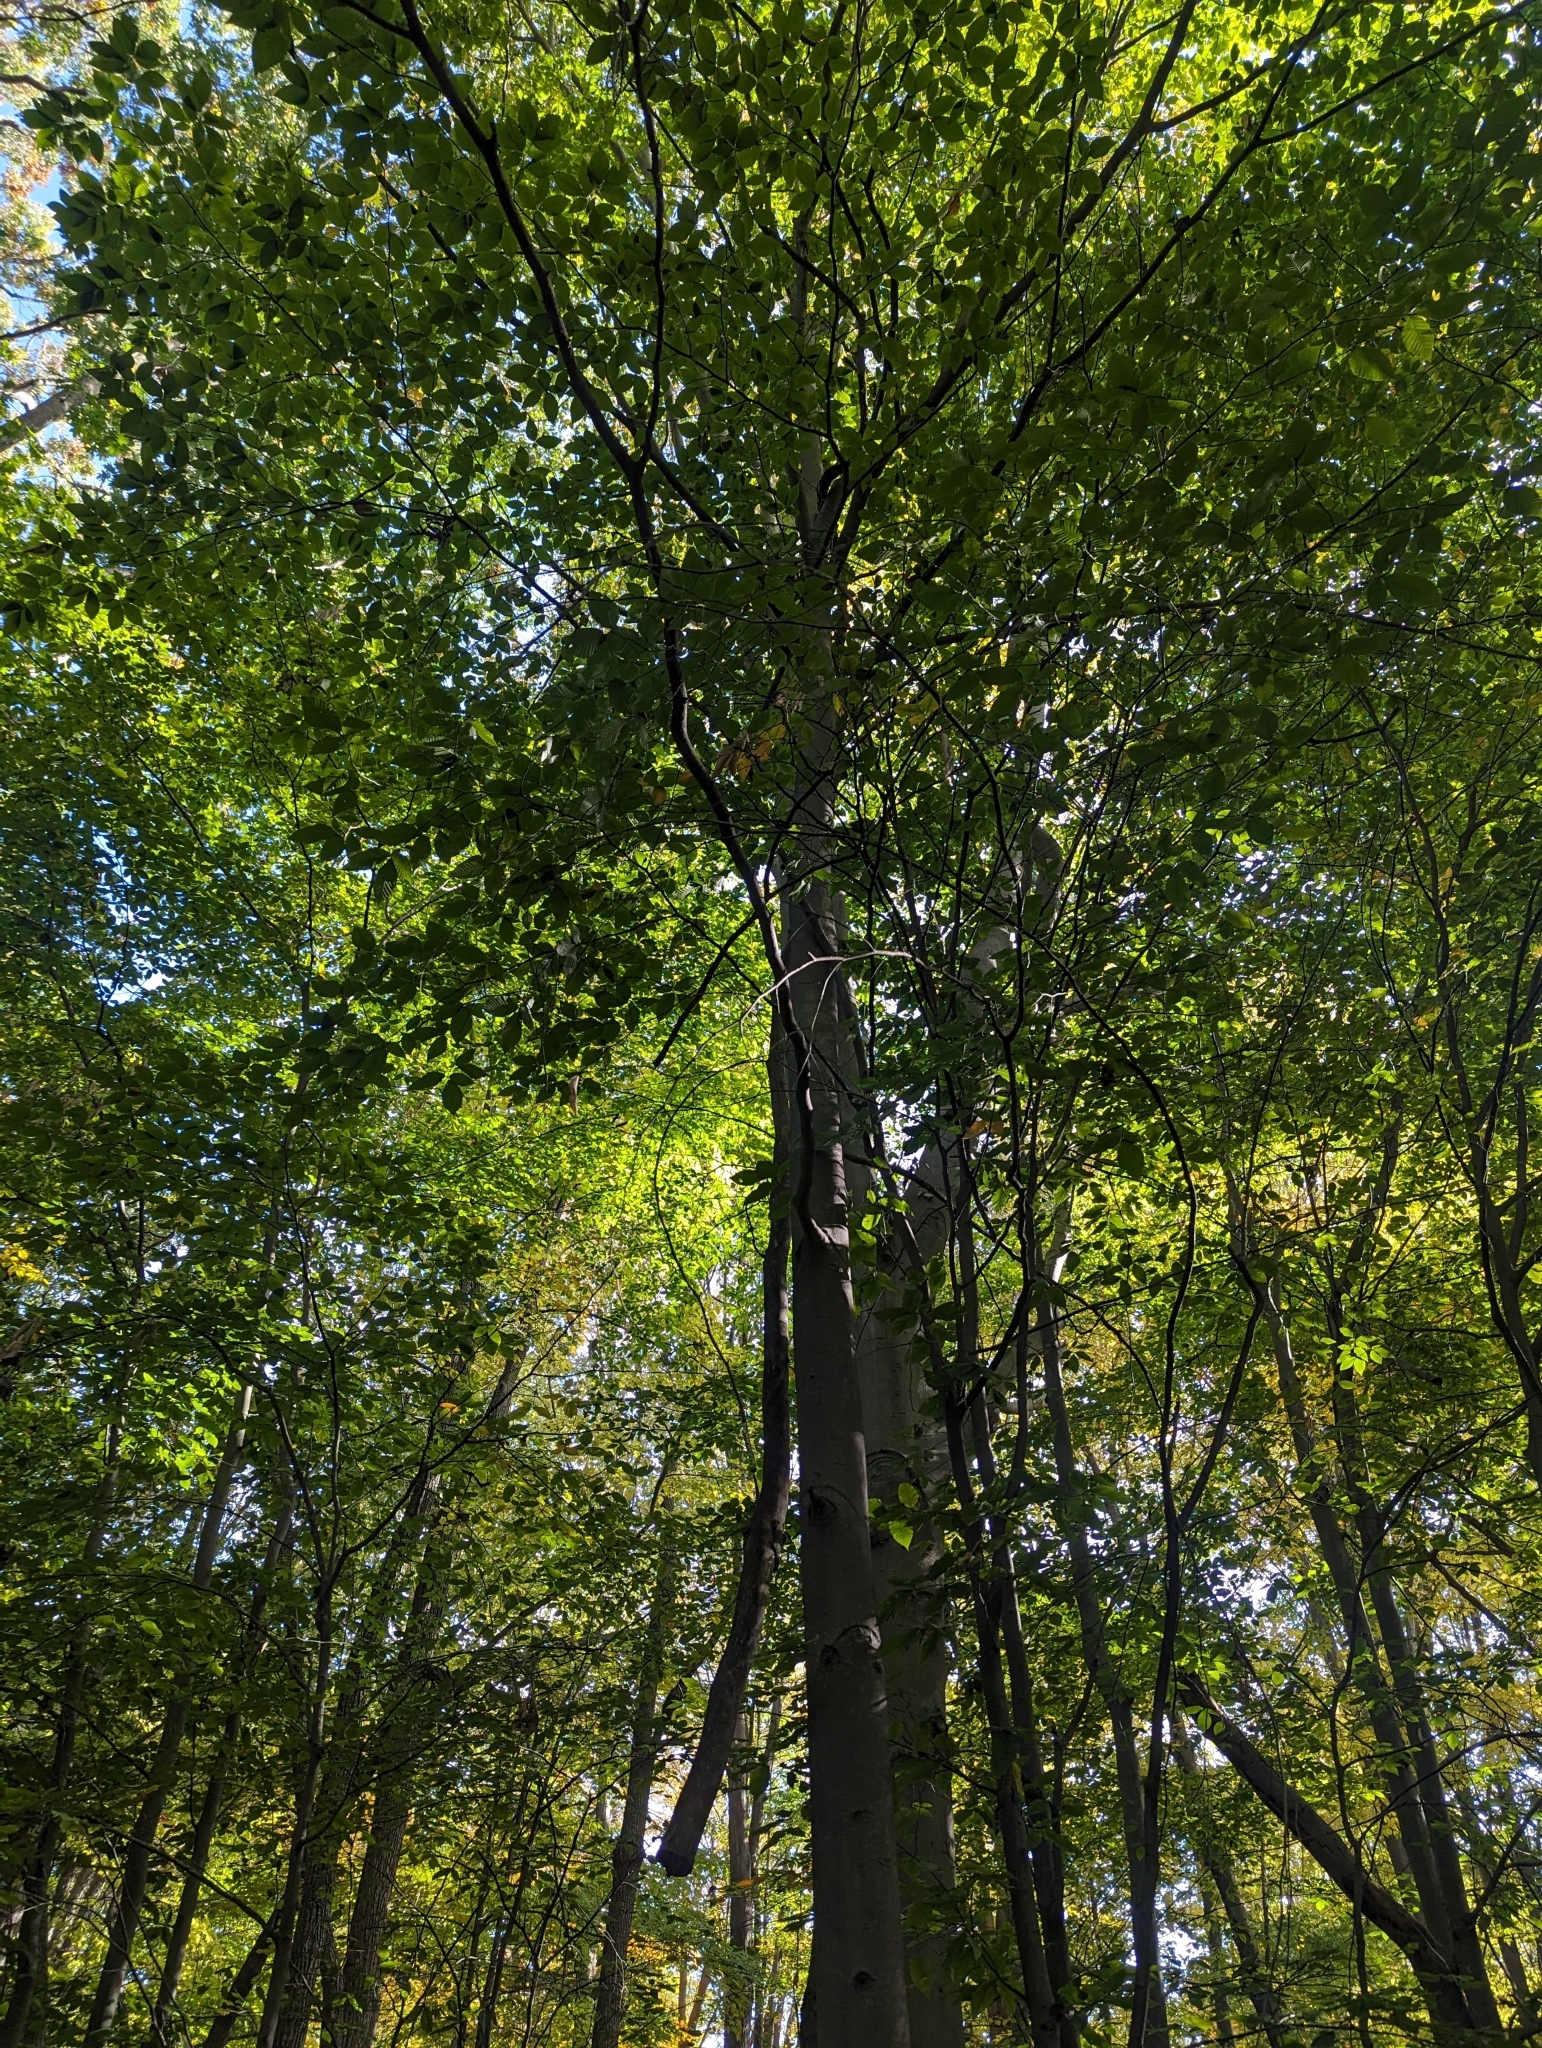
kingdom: Plantae
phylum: Tracheophyta
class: Magnoliopsida
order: Fagales
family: Fagaceae
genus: Fagus
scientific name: Fagus grandifolia
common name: American beech
